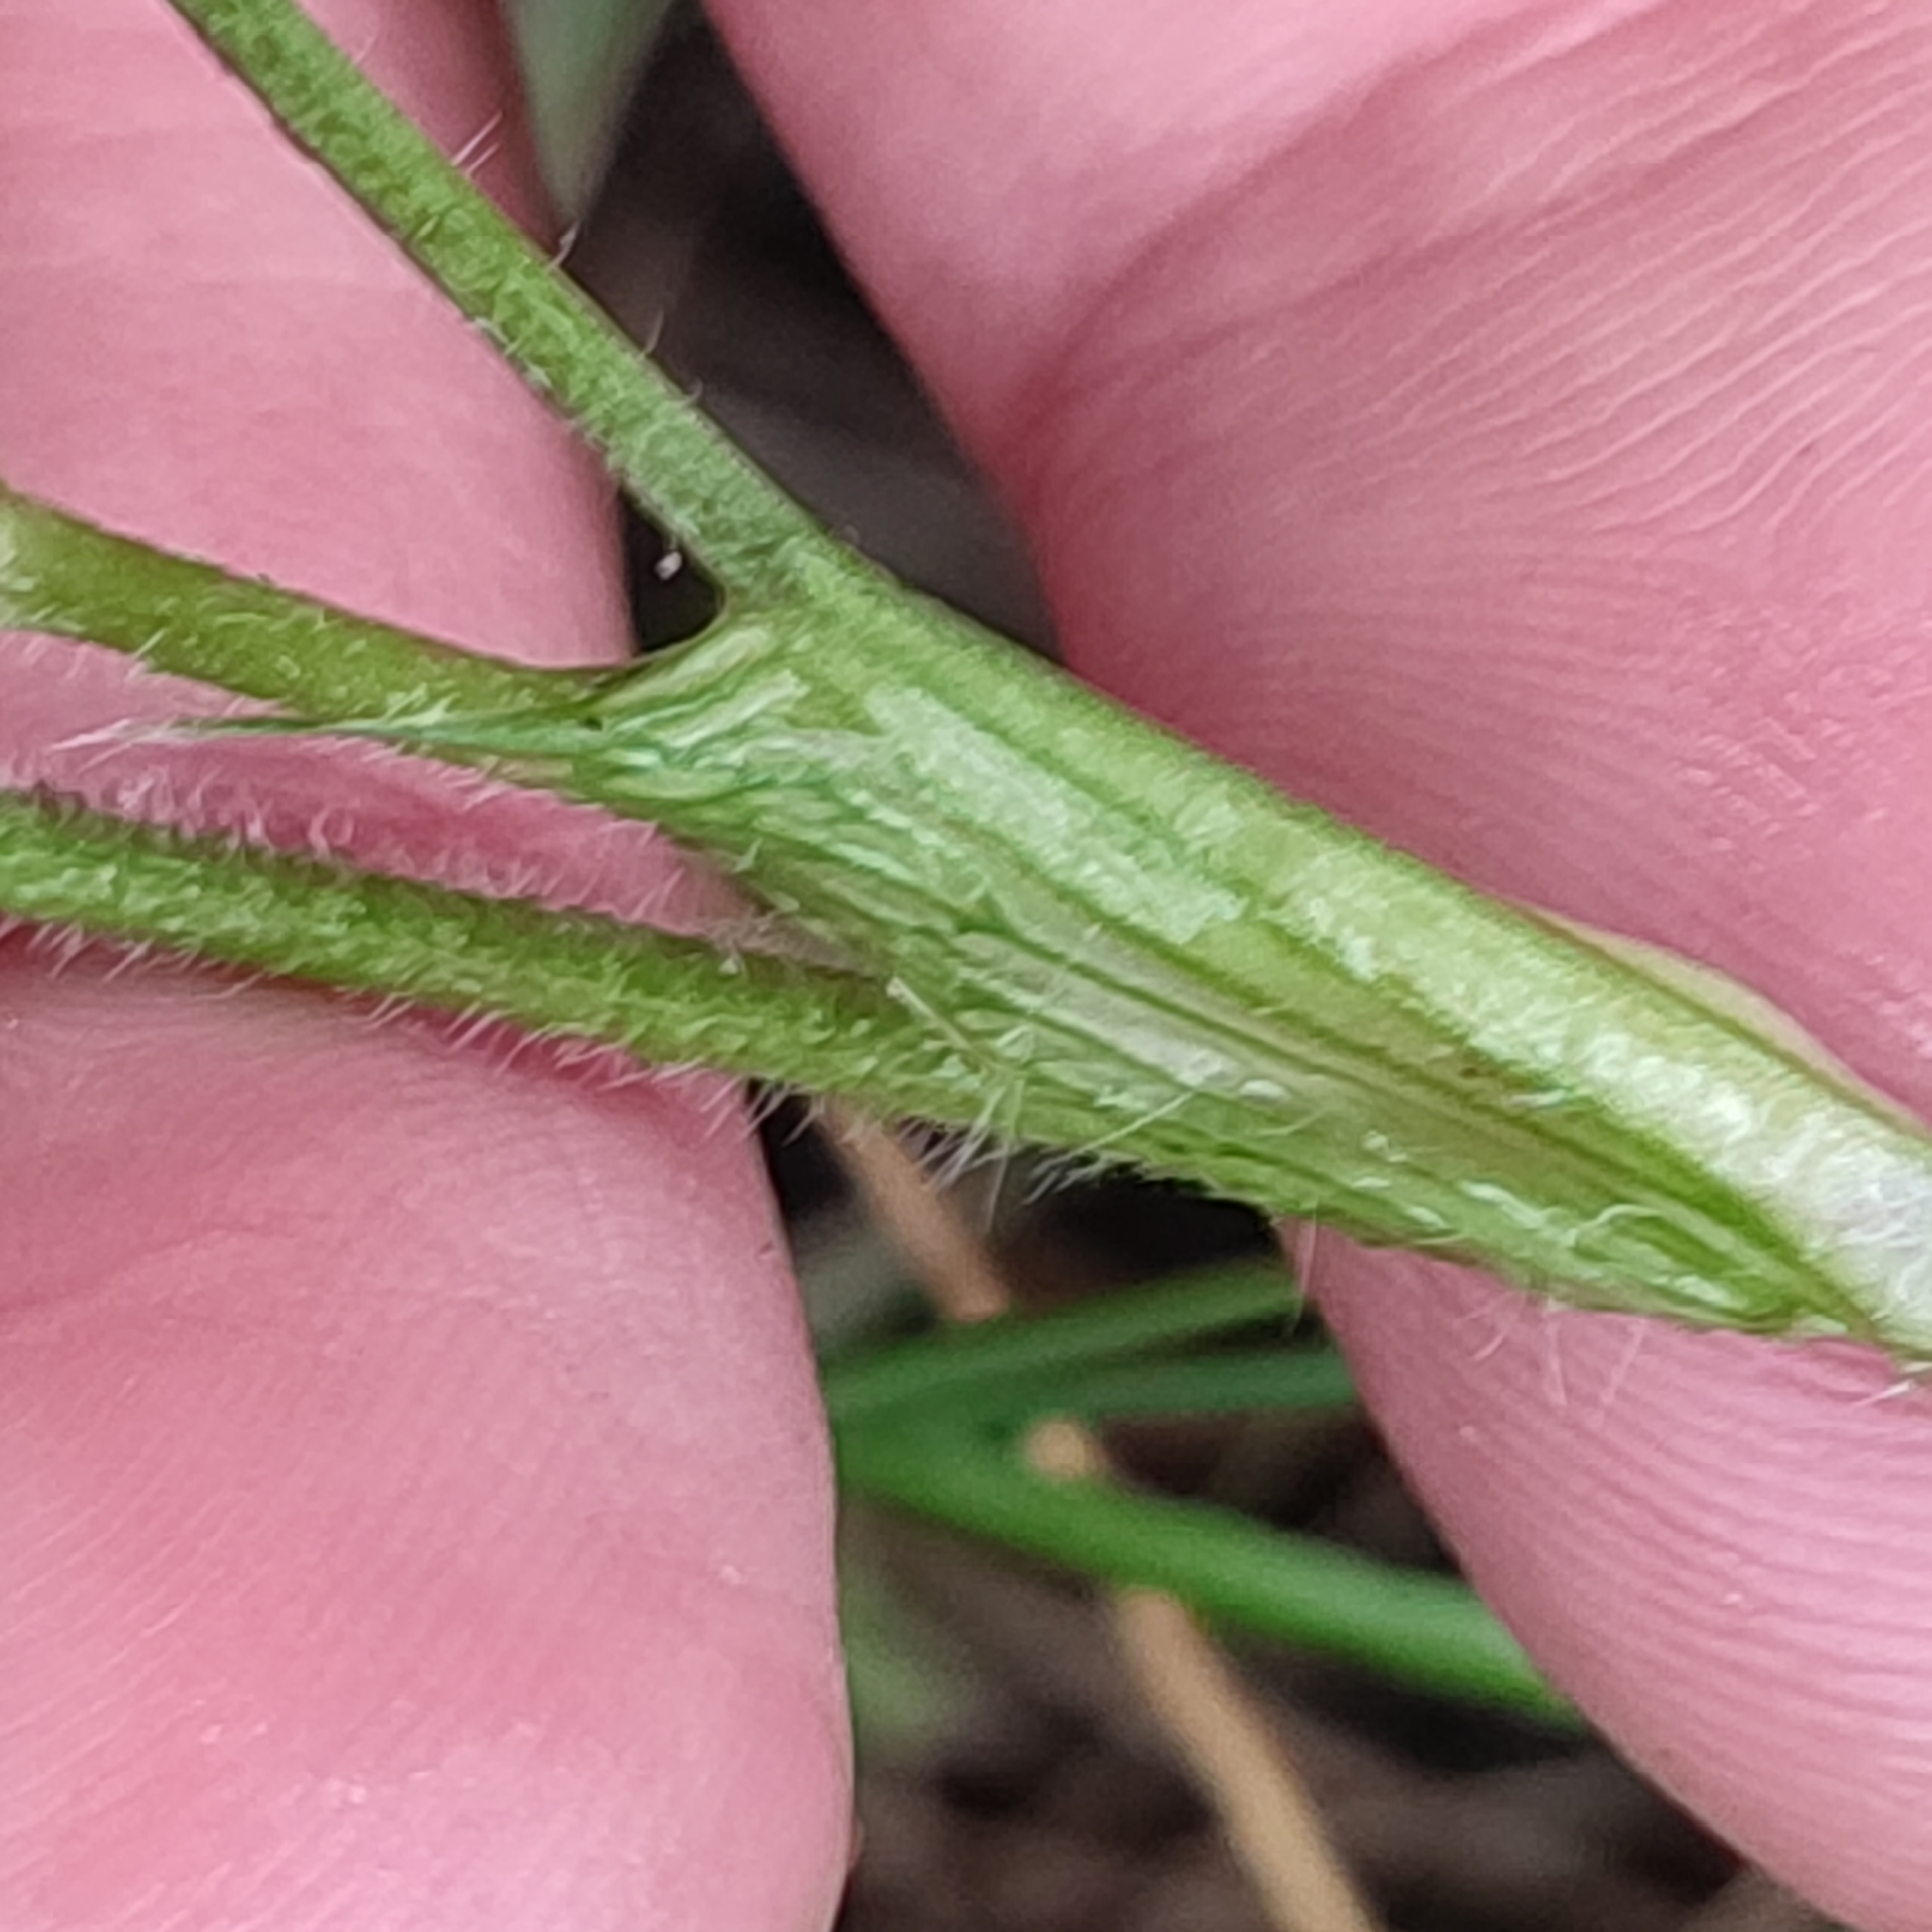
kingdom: Plantae
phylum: Tracheophyta
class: Magnoliopsida
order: Fabales
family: Fabaceae
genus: Trifolium
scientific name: Trifolium pratense
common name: Red clover
